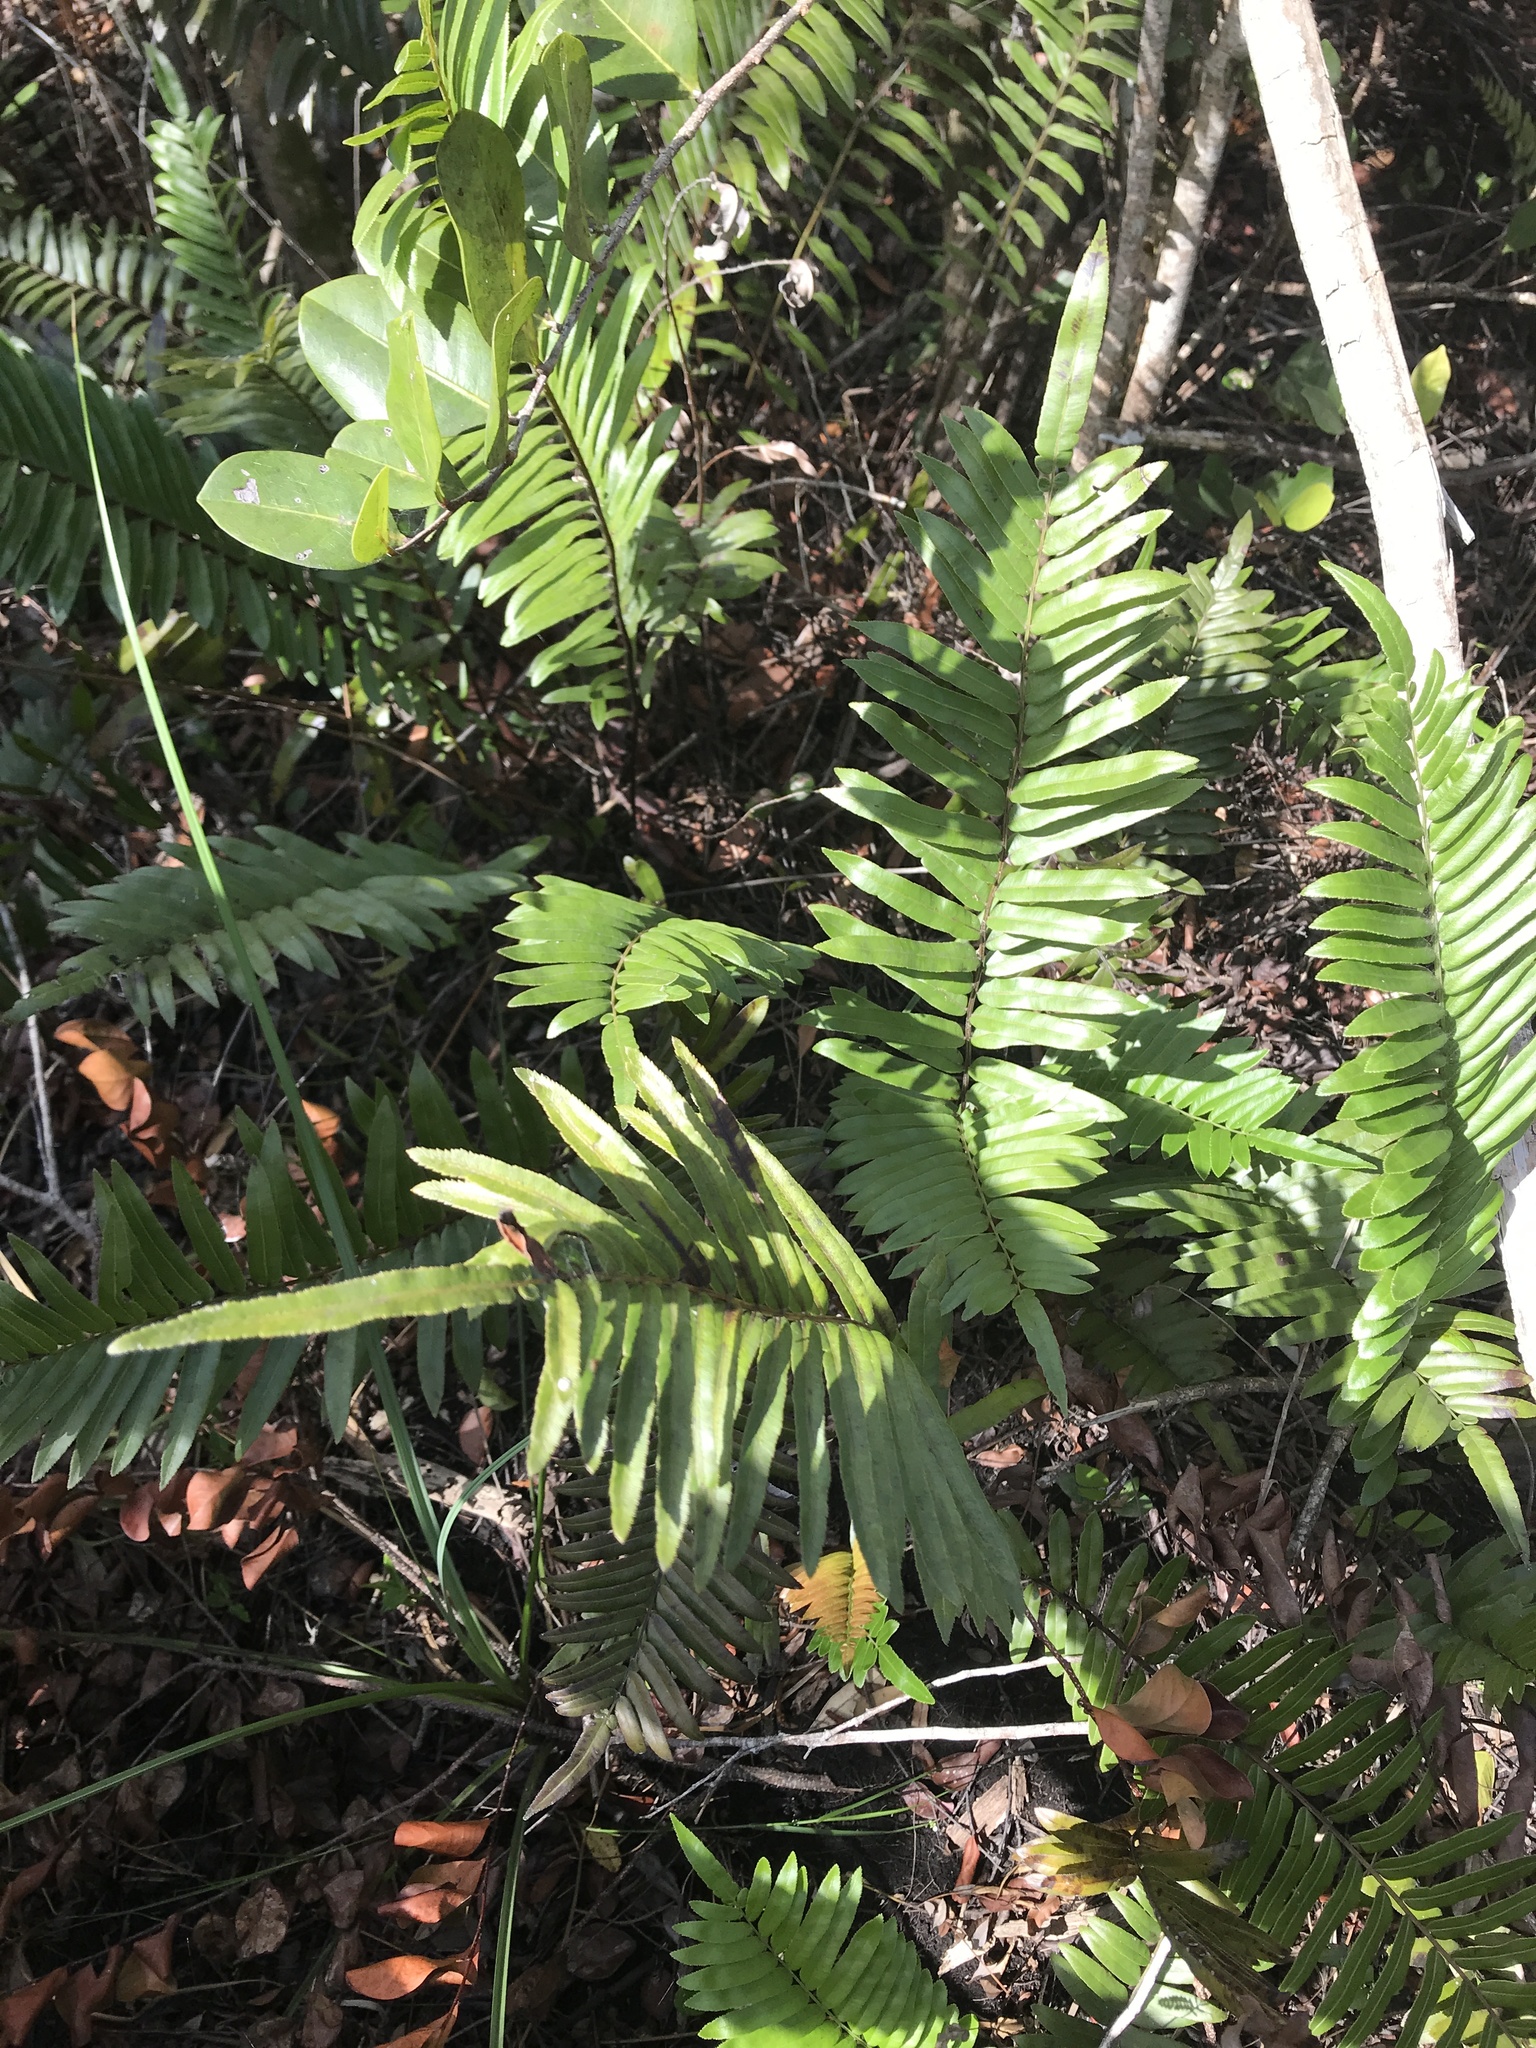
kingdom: Plantae
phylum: Tracheophyta
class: Polypodiopsida
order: Polypodiales
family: Blechnaceae
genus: Telmatoblechnum
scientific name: Telmatoblechnum serrulatum
